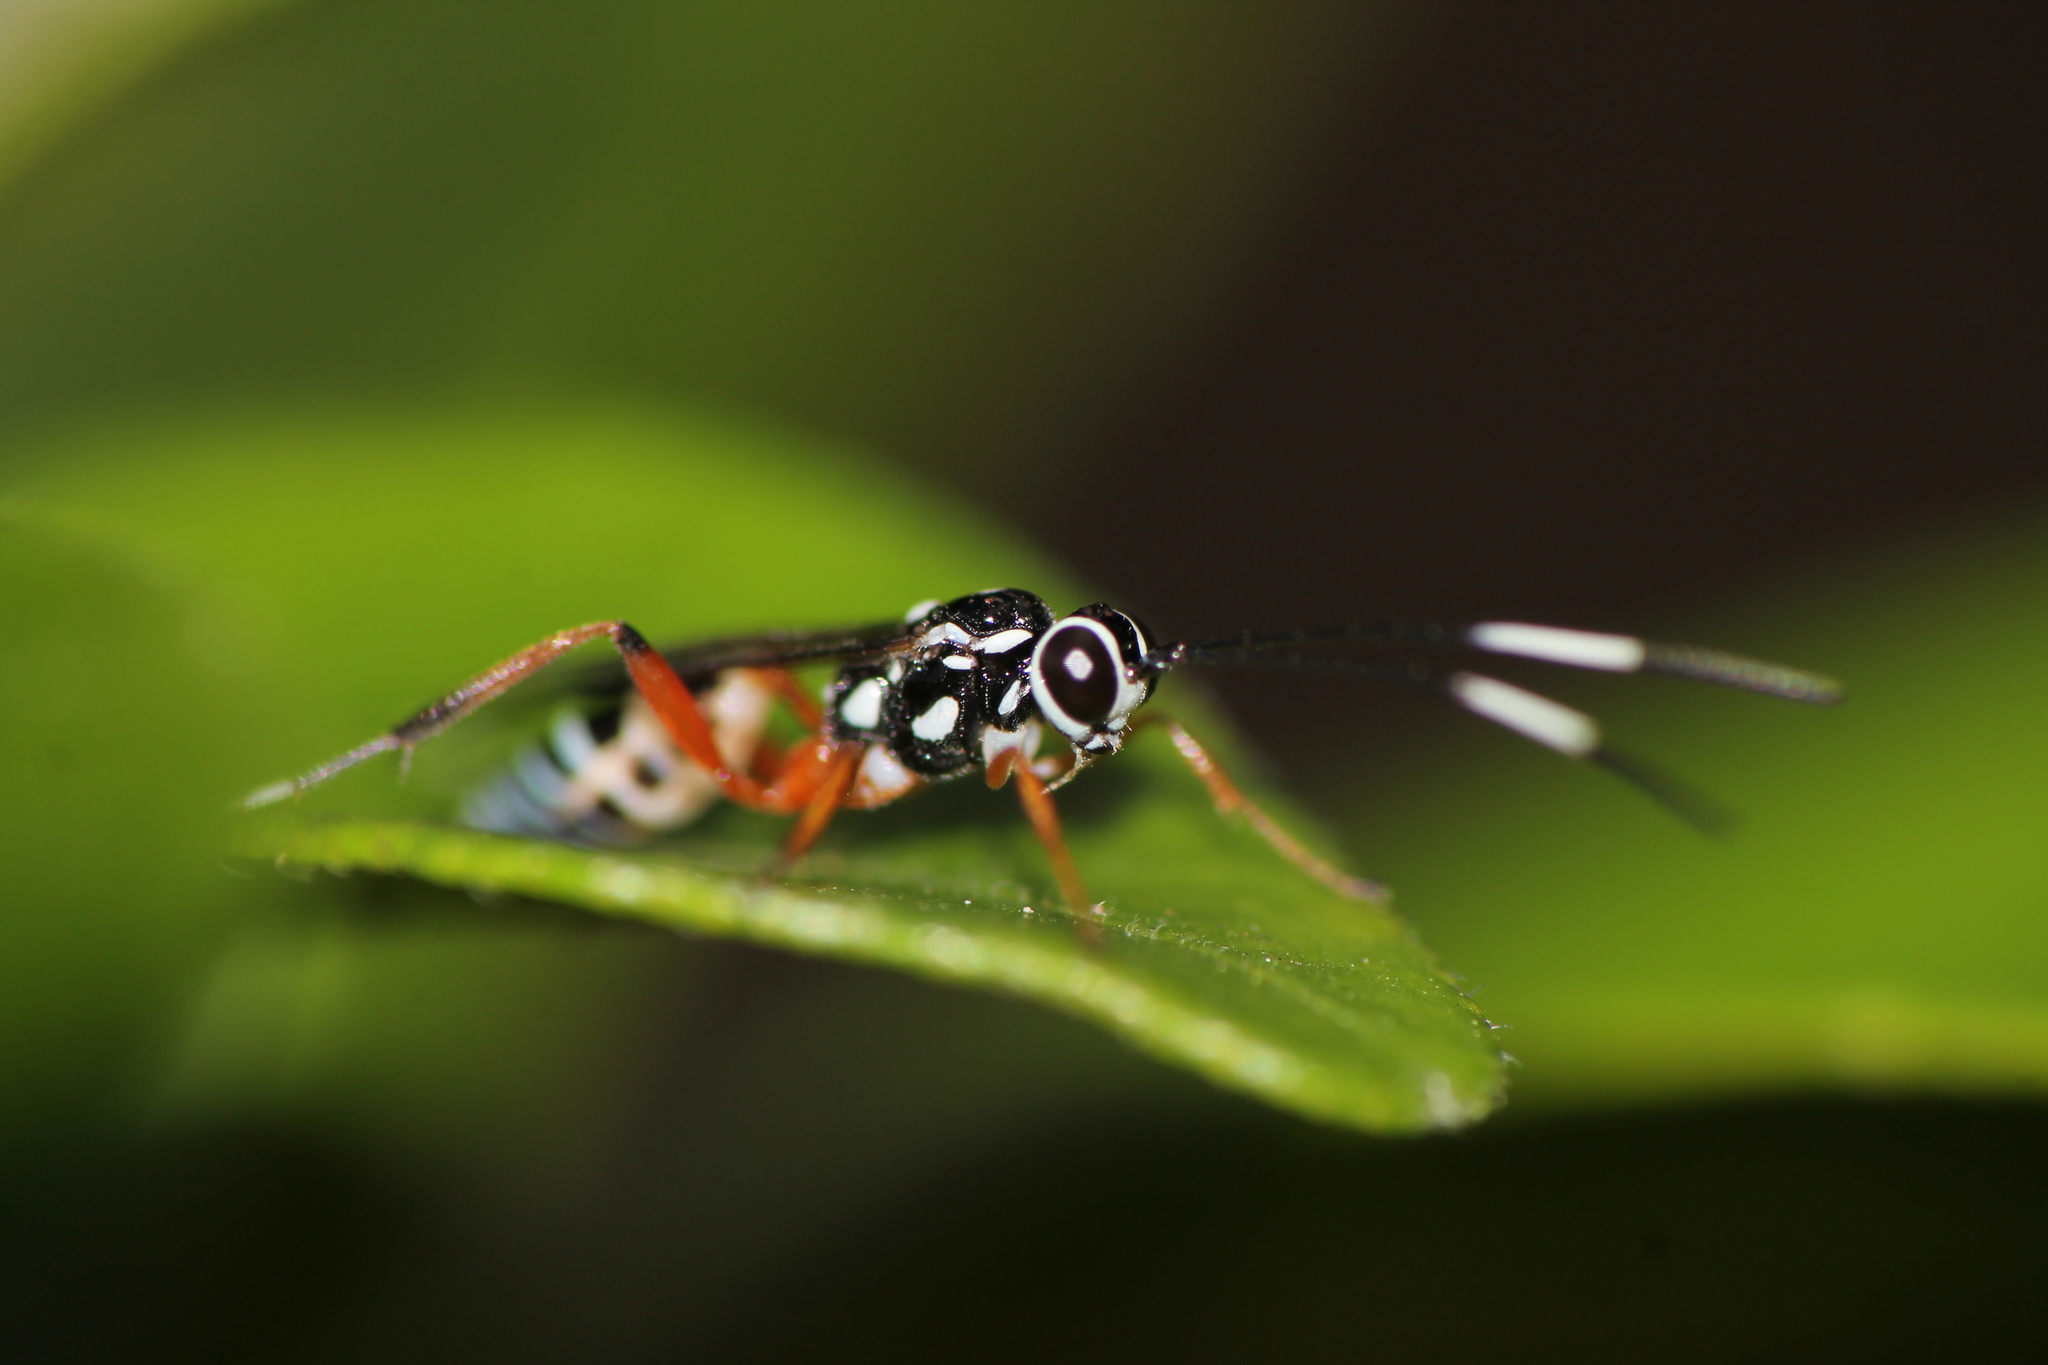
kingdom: Animalia
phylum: Arthropoda
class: Insecta
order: Hymenoptera
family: Ichneumonidae
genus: Glabridorsum
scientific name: Glabridorsum stokesii
